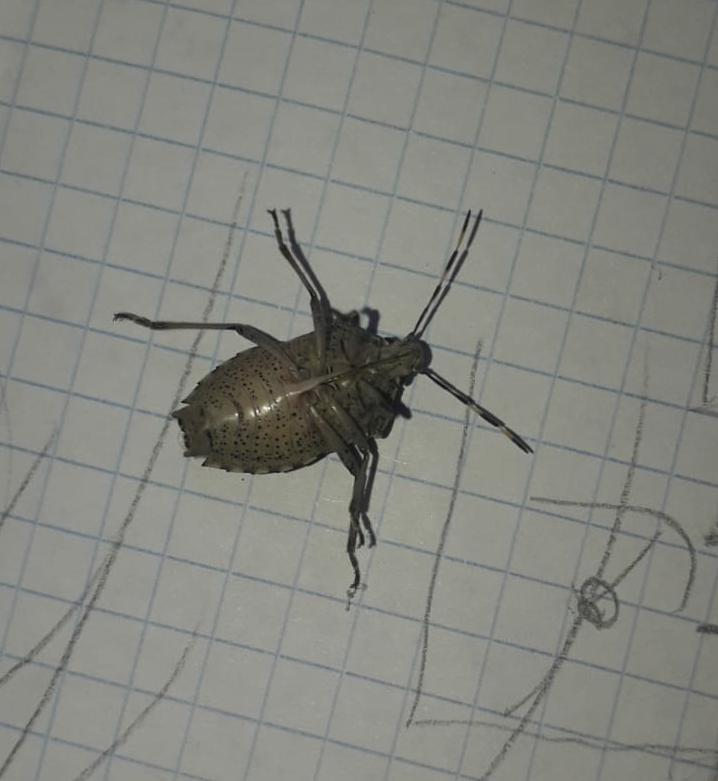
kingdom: Animalia
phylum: Arthropoda
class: Insecta
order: Hemiptera
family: Pentatomidae
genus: Rhaphigaster
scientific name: Rhaphigaster nebulosa
